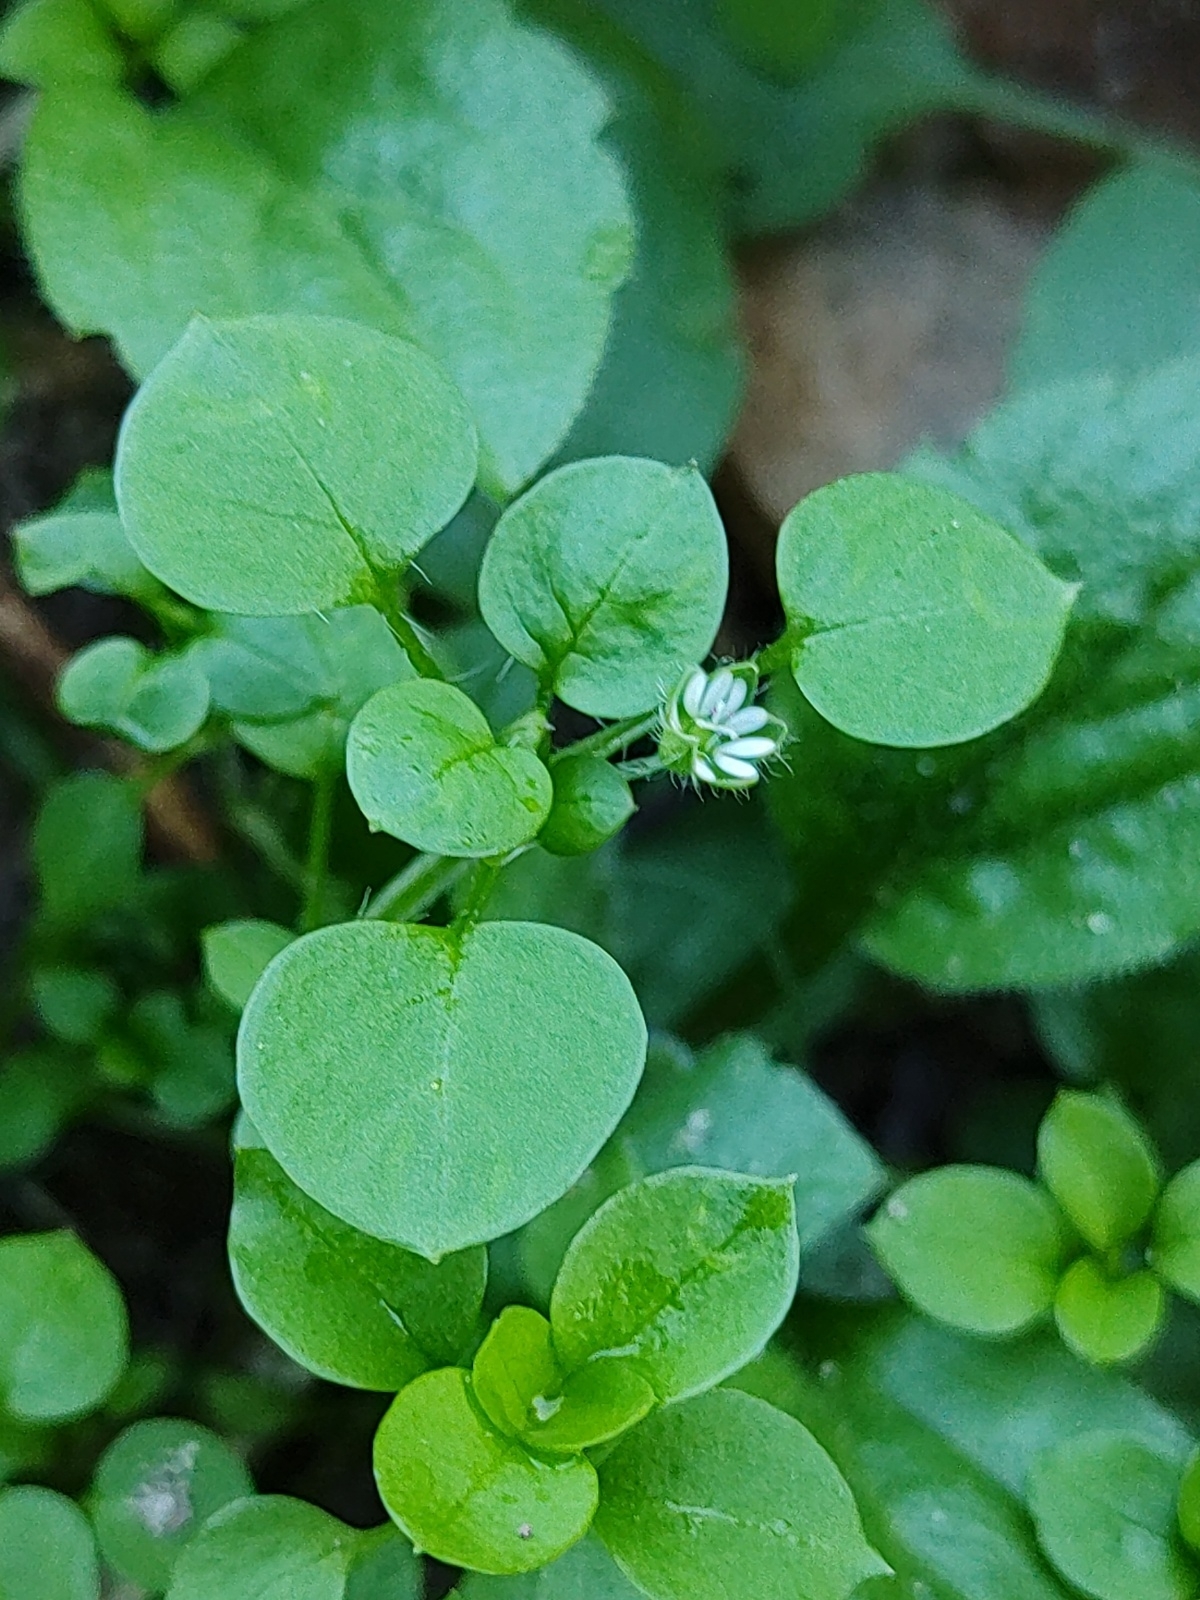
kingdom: Plantae
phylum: Tracheophyta
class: Magnoliopsida
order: Caryophyllales
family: Caryophyllaceae
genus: Stellaria
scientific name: Stellaria
